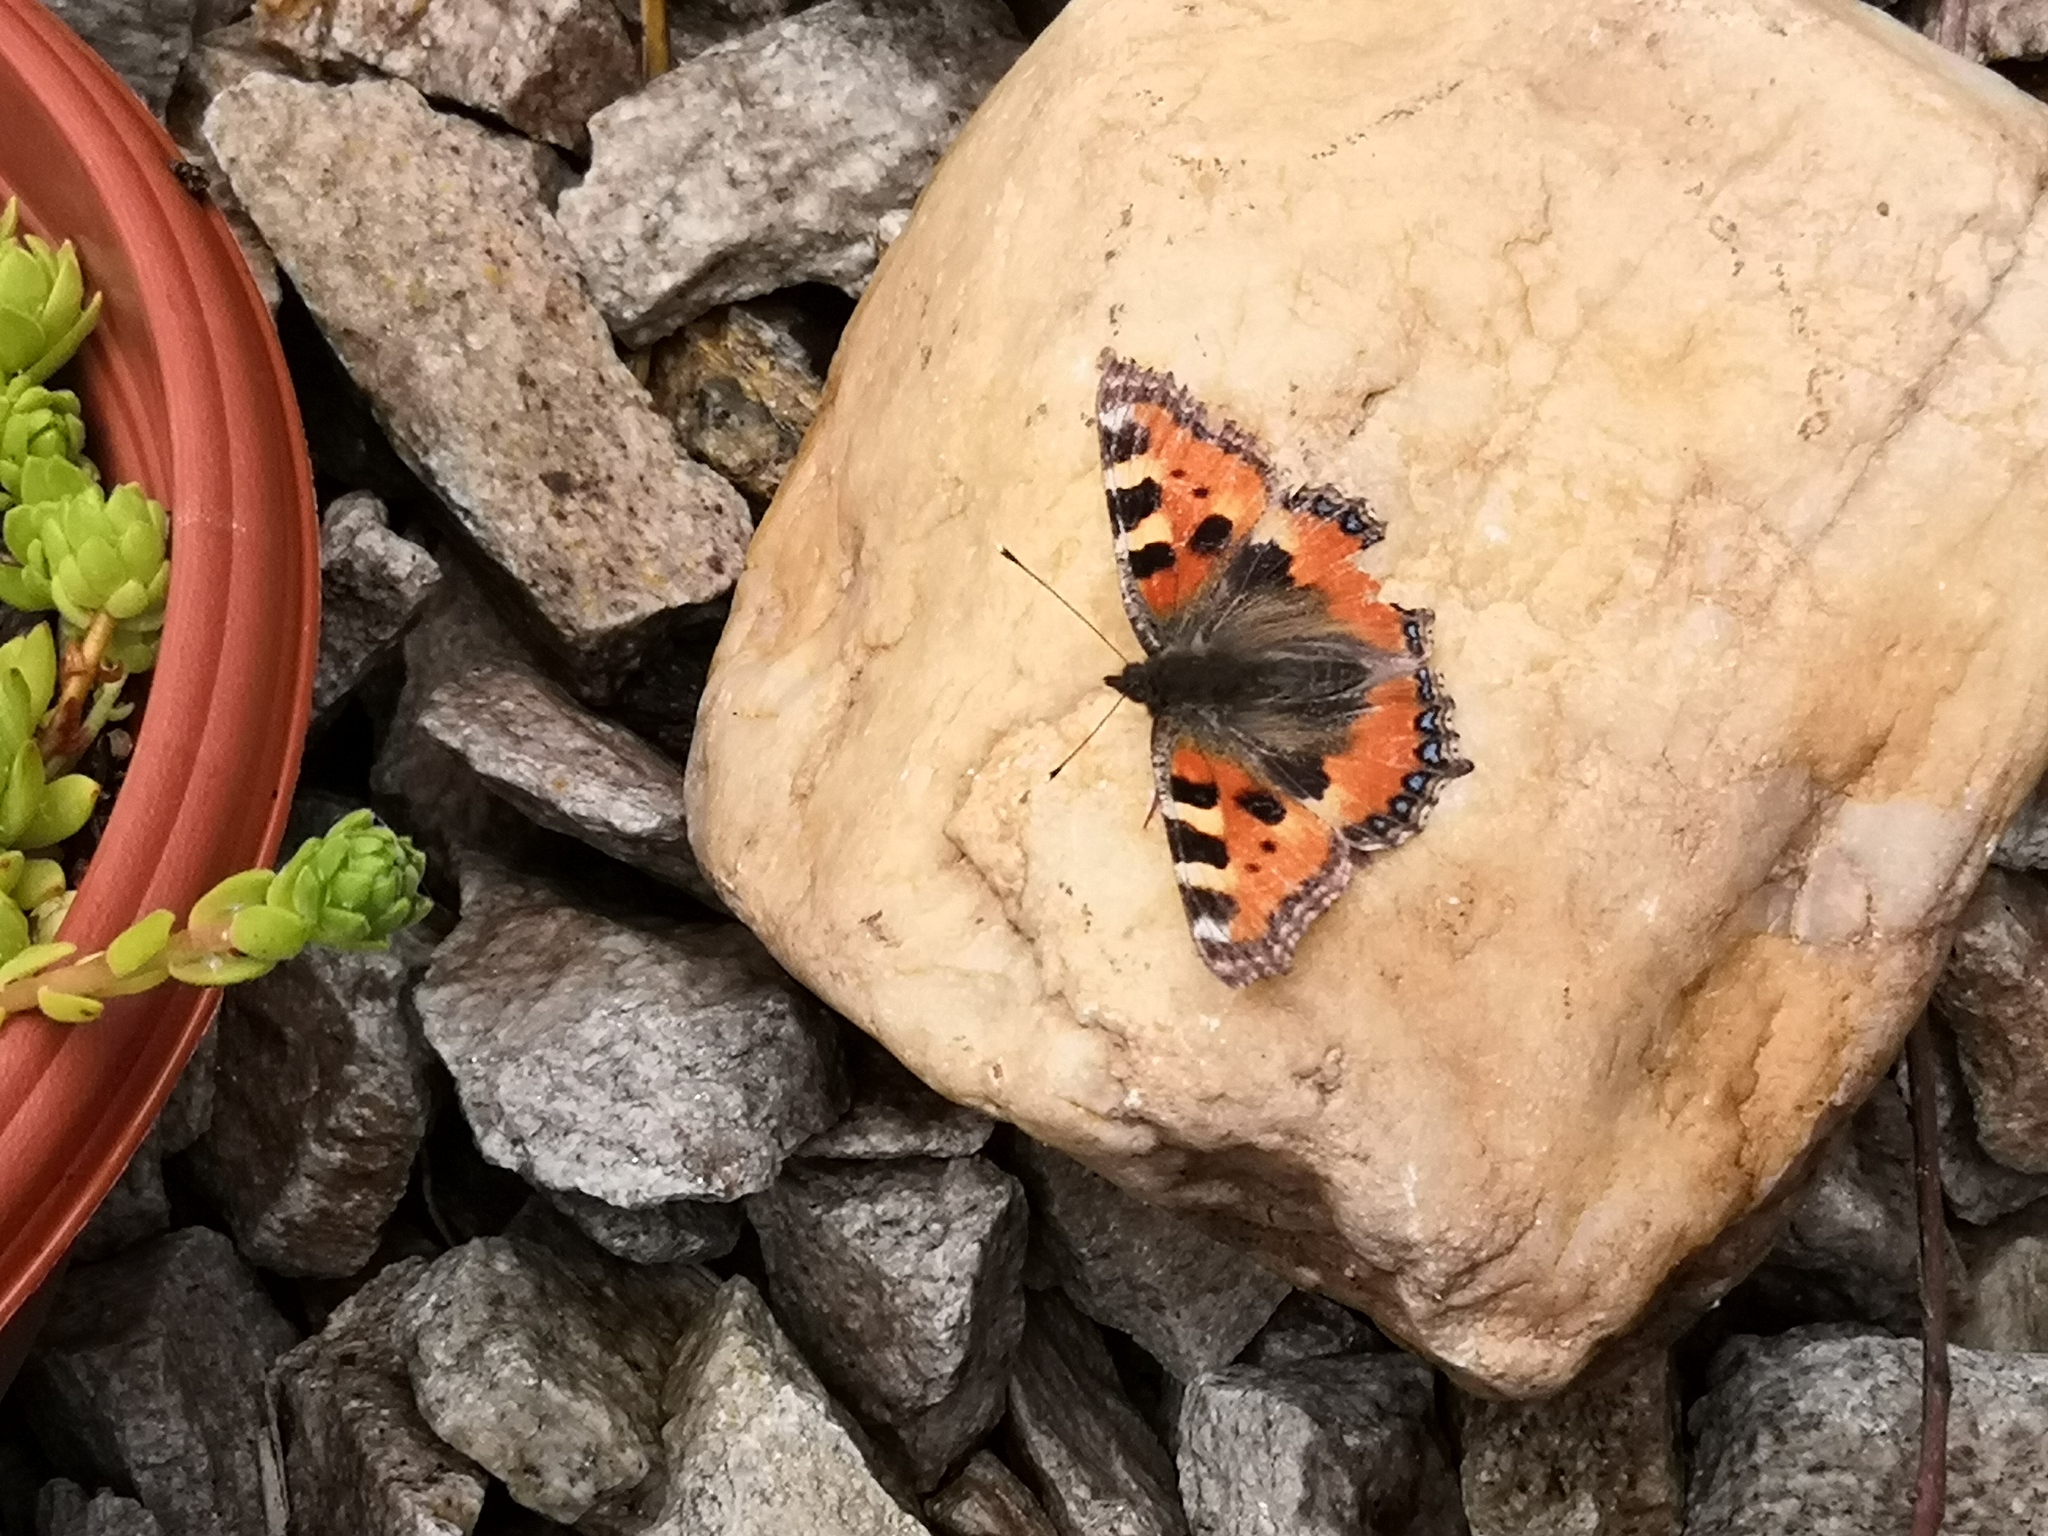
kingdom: Animalia
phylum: Arthropoda
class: Insecta
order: Lepidoptera
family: Nymphalidae
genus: Aglais
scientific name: Aglais urticae
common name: Small tortoiseshell
